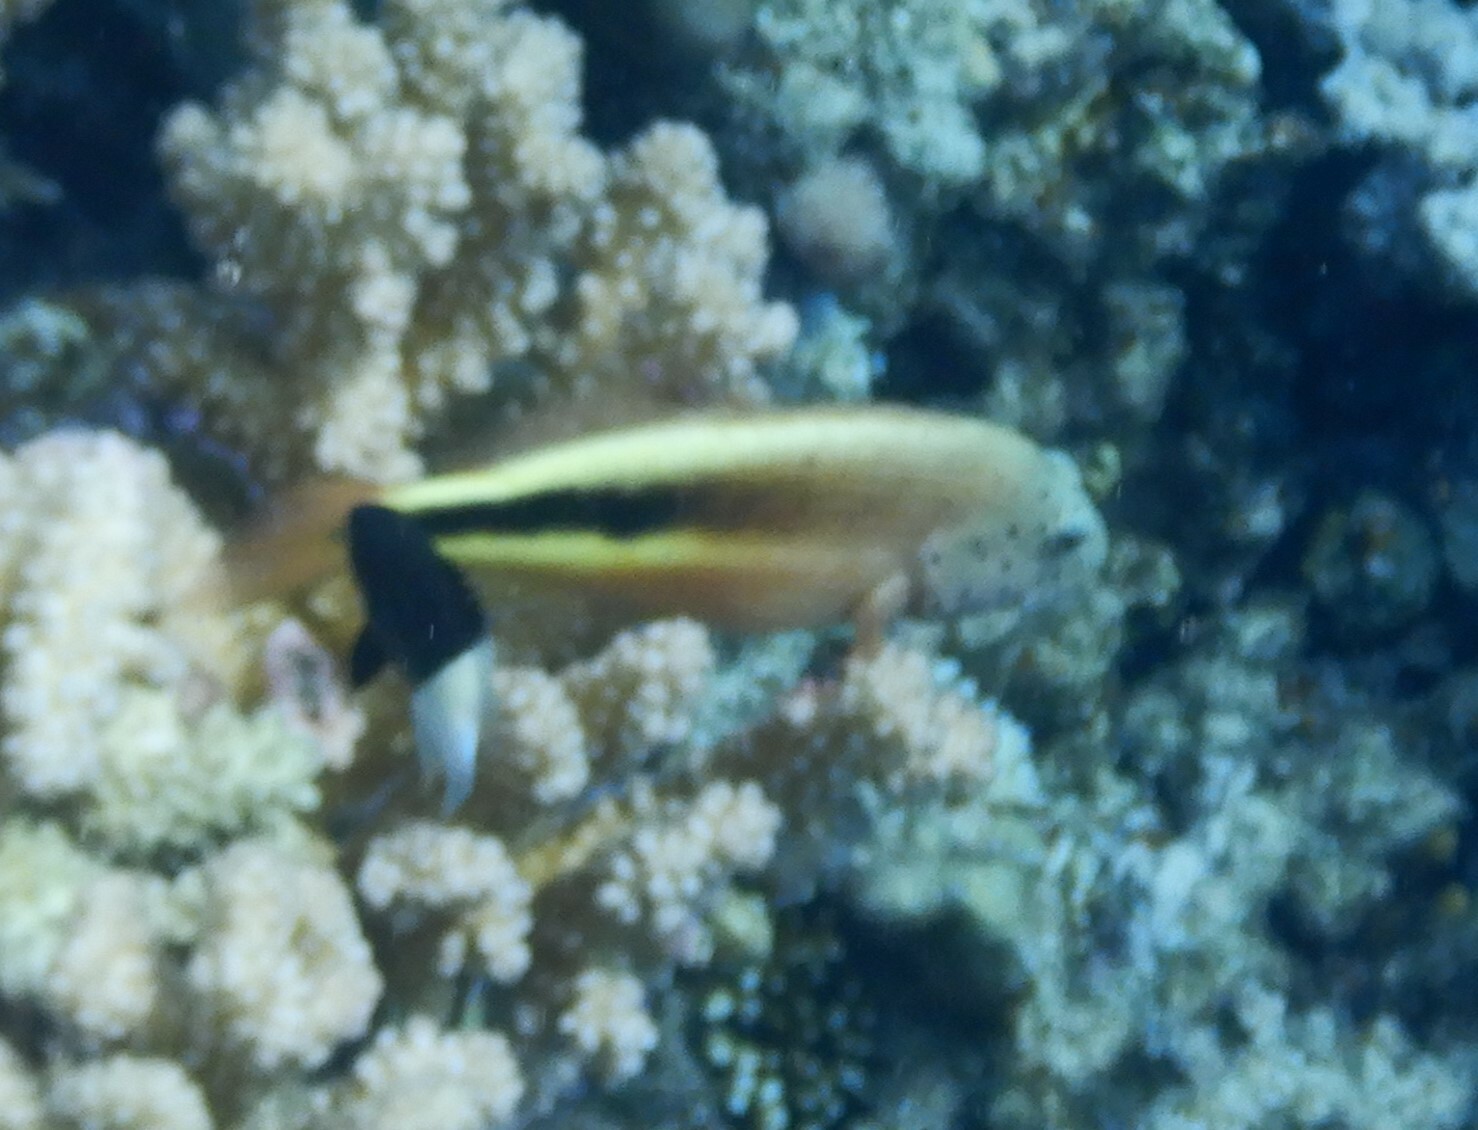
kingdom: Animalia
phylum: Chordata
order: Perciformes
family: Cirrhitidae
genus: Paracirrhites
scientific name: Paracirrhites forsteri
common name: Freckled hawkfish
